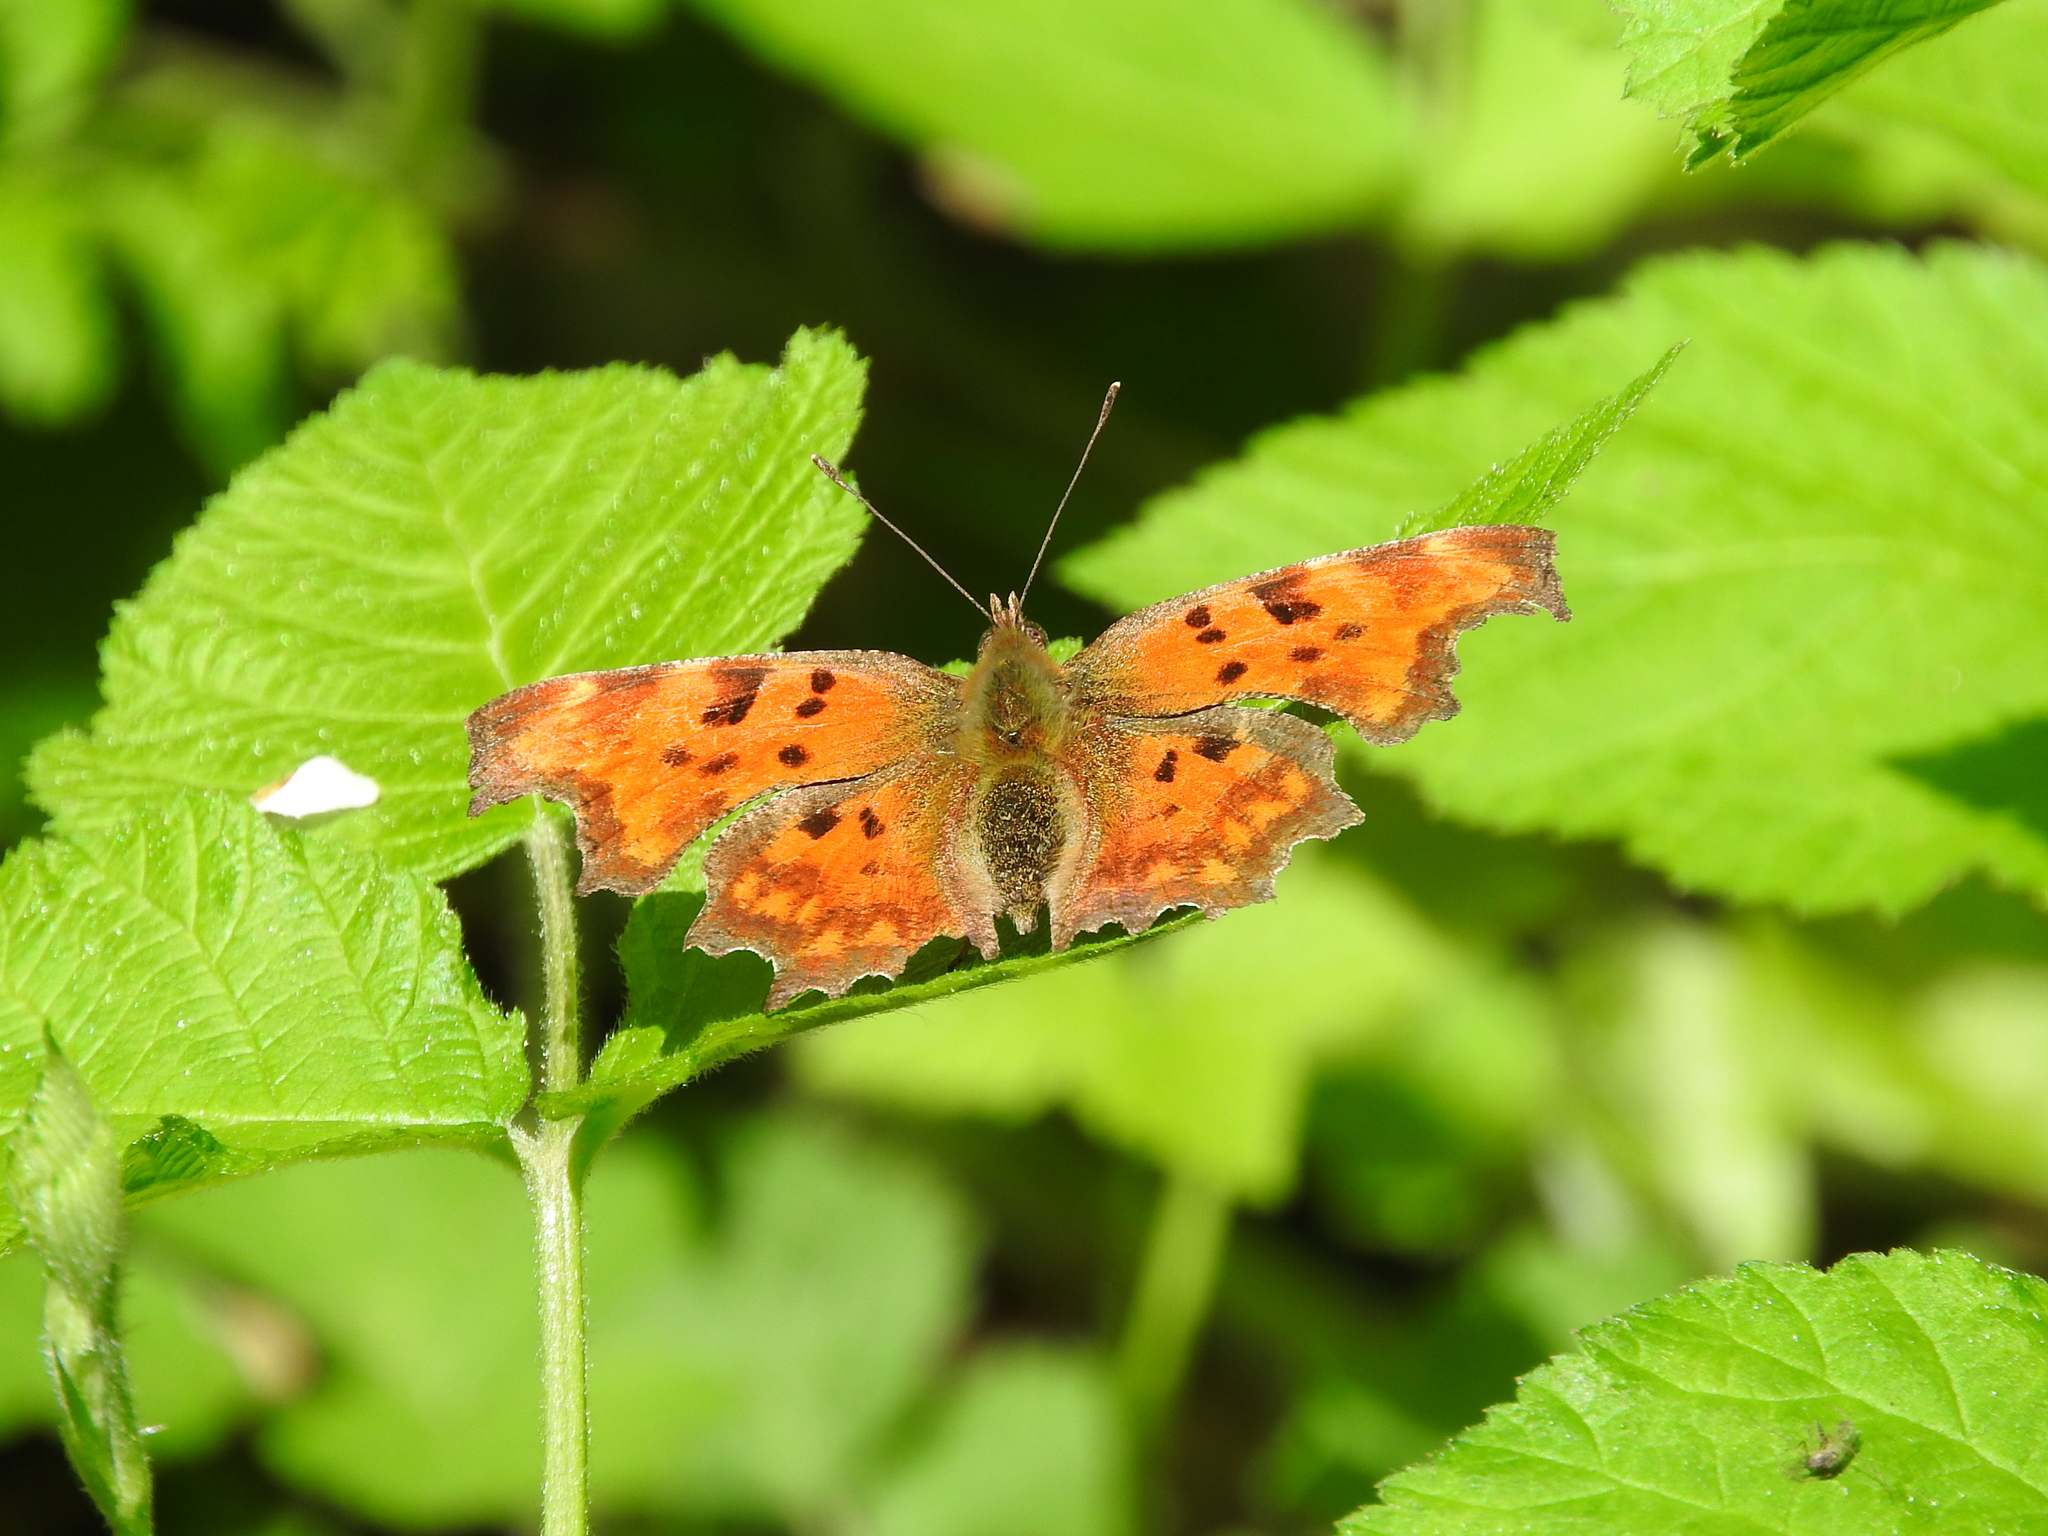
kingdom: Animalia
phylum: Arthropoda
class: Insecta
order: Lepidoptera
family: Nymphalidae
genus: Polygonia
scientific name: Polygonia c-album
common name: Comma
